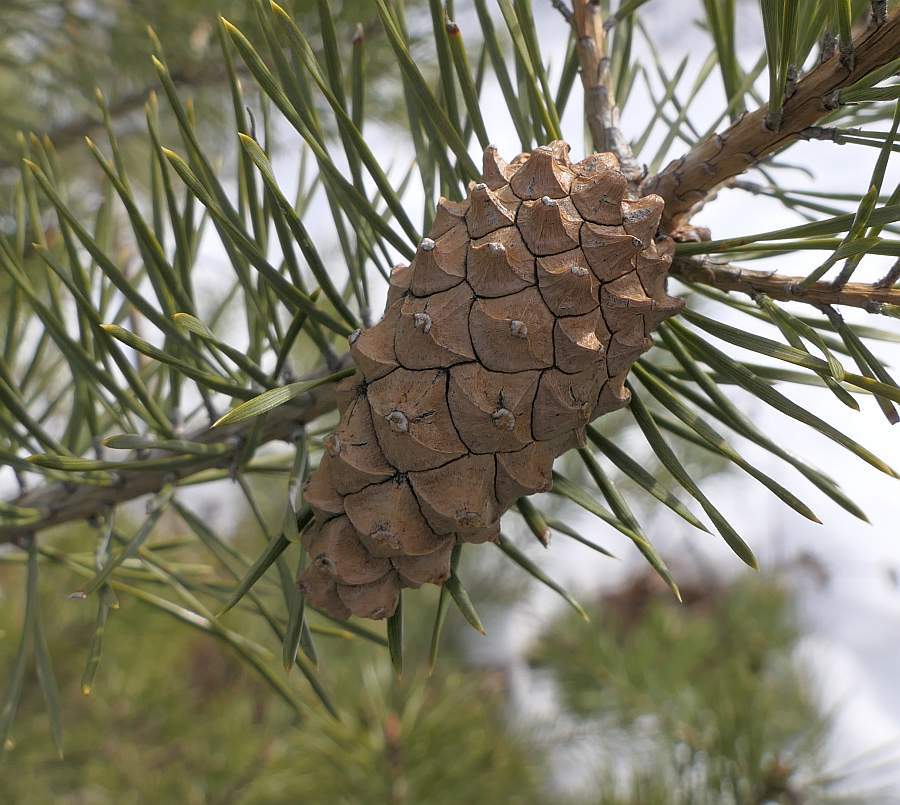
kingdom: Plantae
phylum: Tracheophyta
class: Pinopsida
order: Pinales
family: Pinaceae
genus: Pinus
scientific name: Pinus sylvestris
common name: Scots pine
